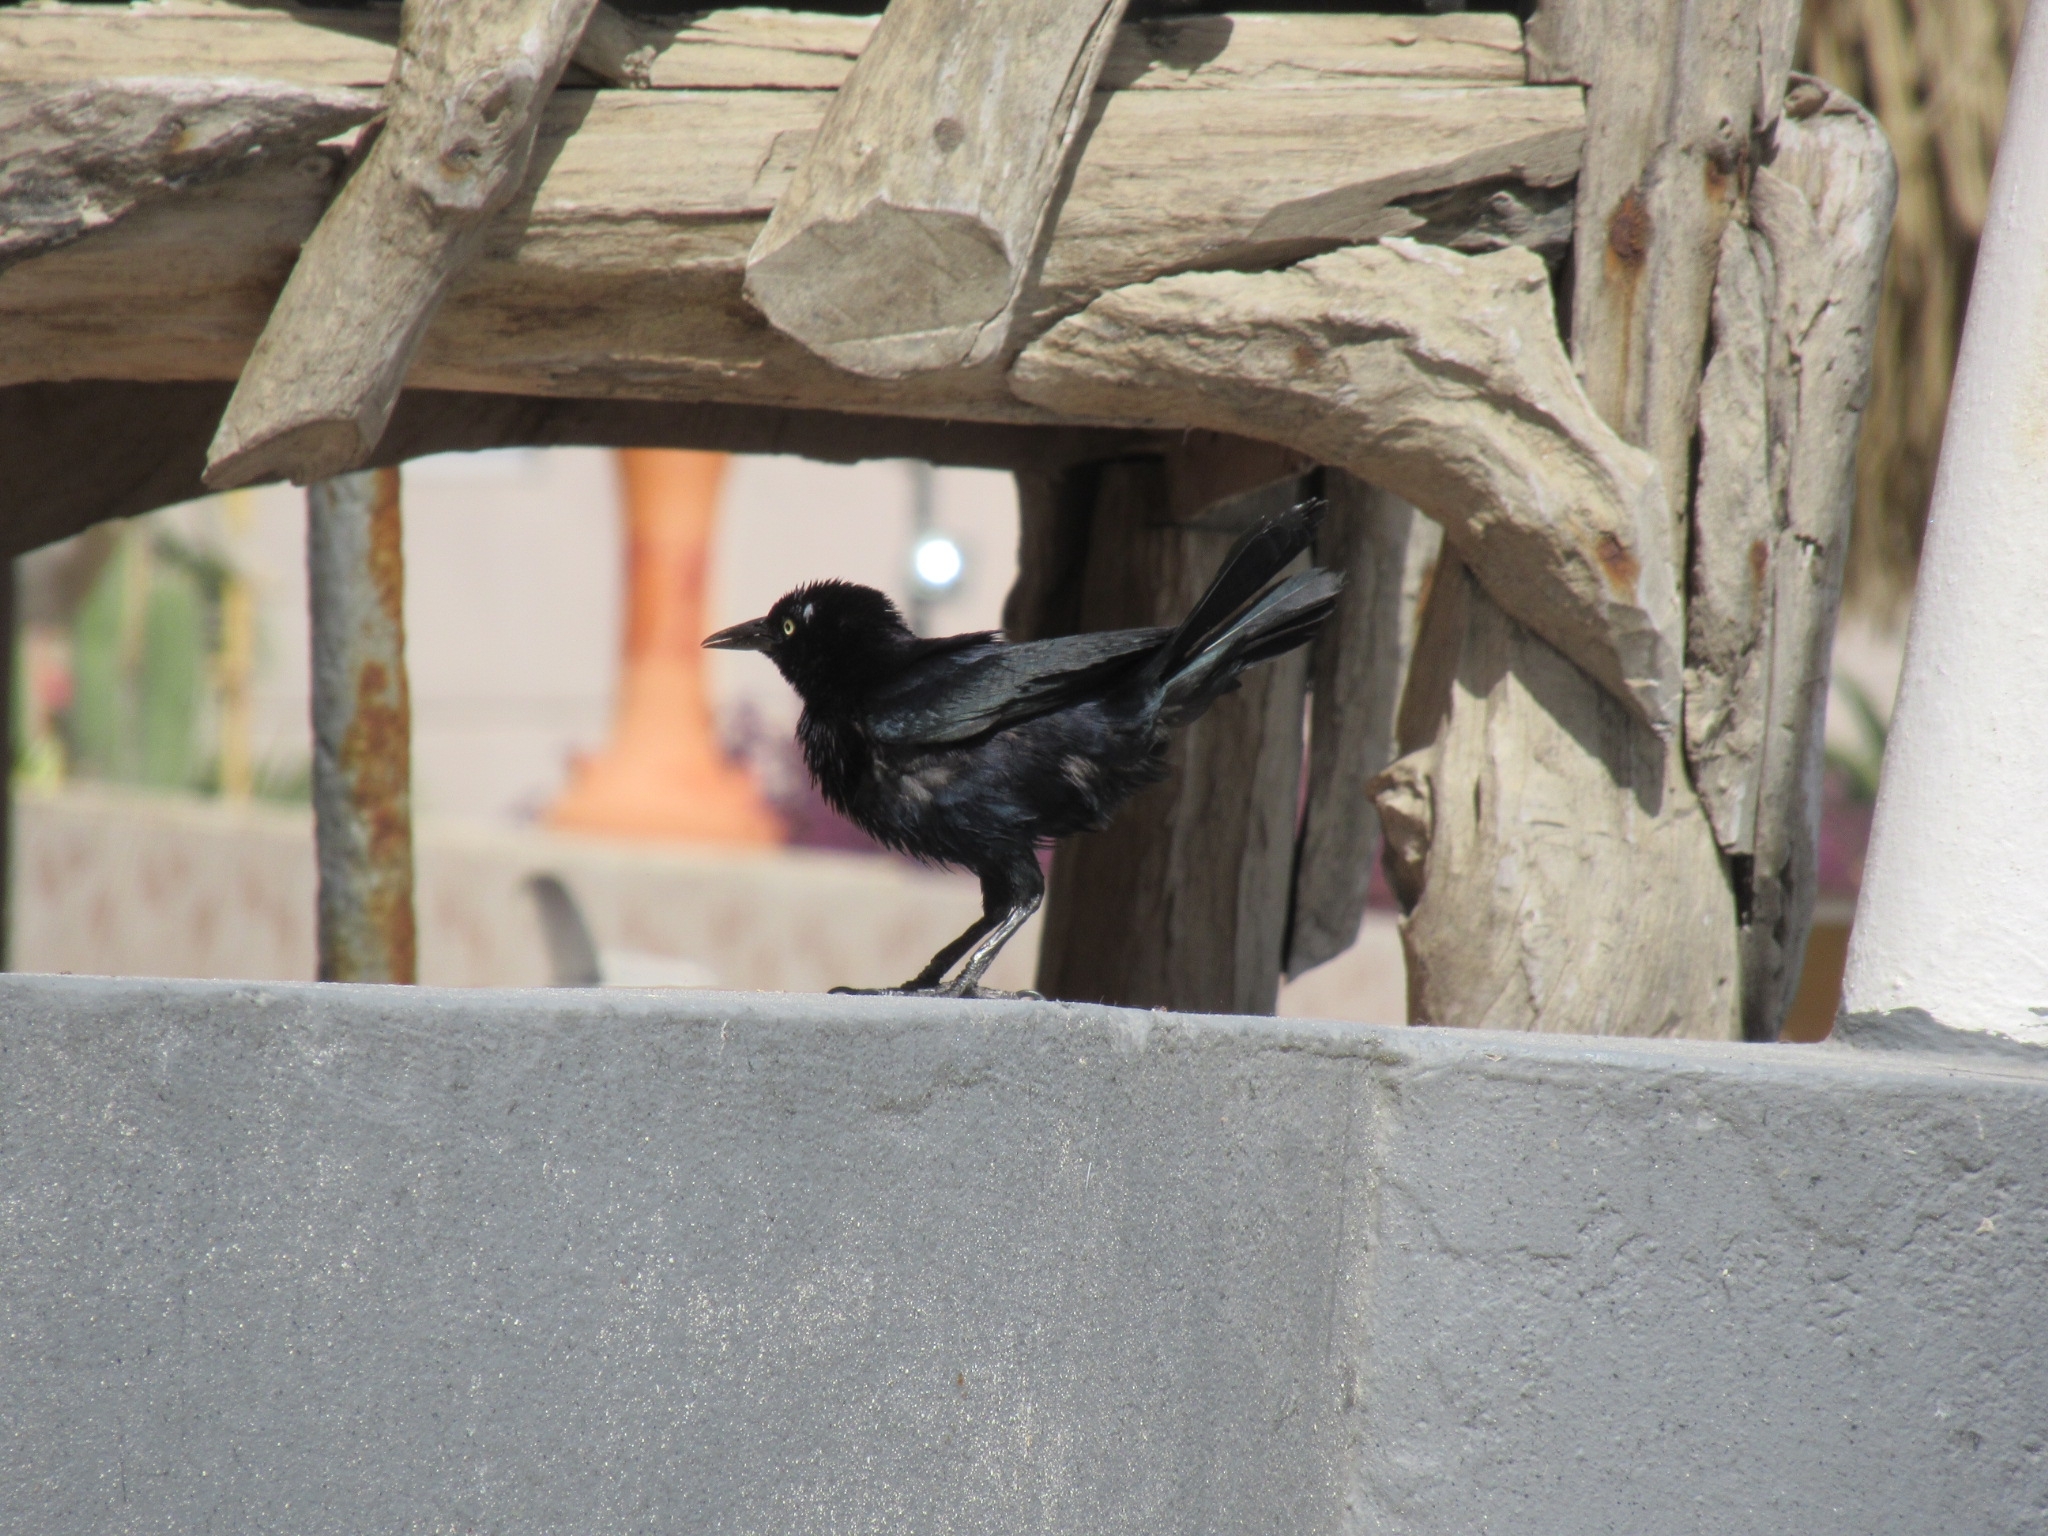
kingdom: Animalia
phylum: Chordata
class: Aves
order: Passeriformes
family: Icteridae
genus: Quiscalus
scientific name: Quiscalus lugubris
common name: Carib grackle
